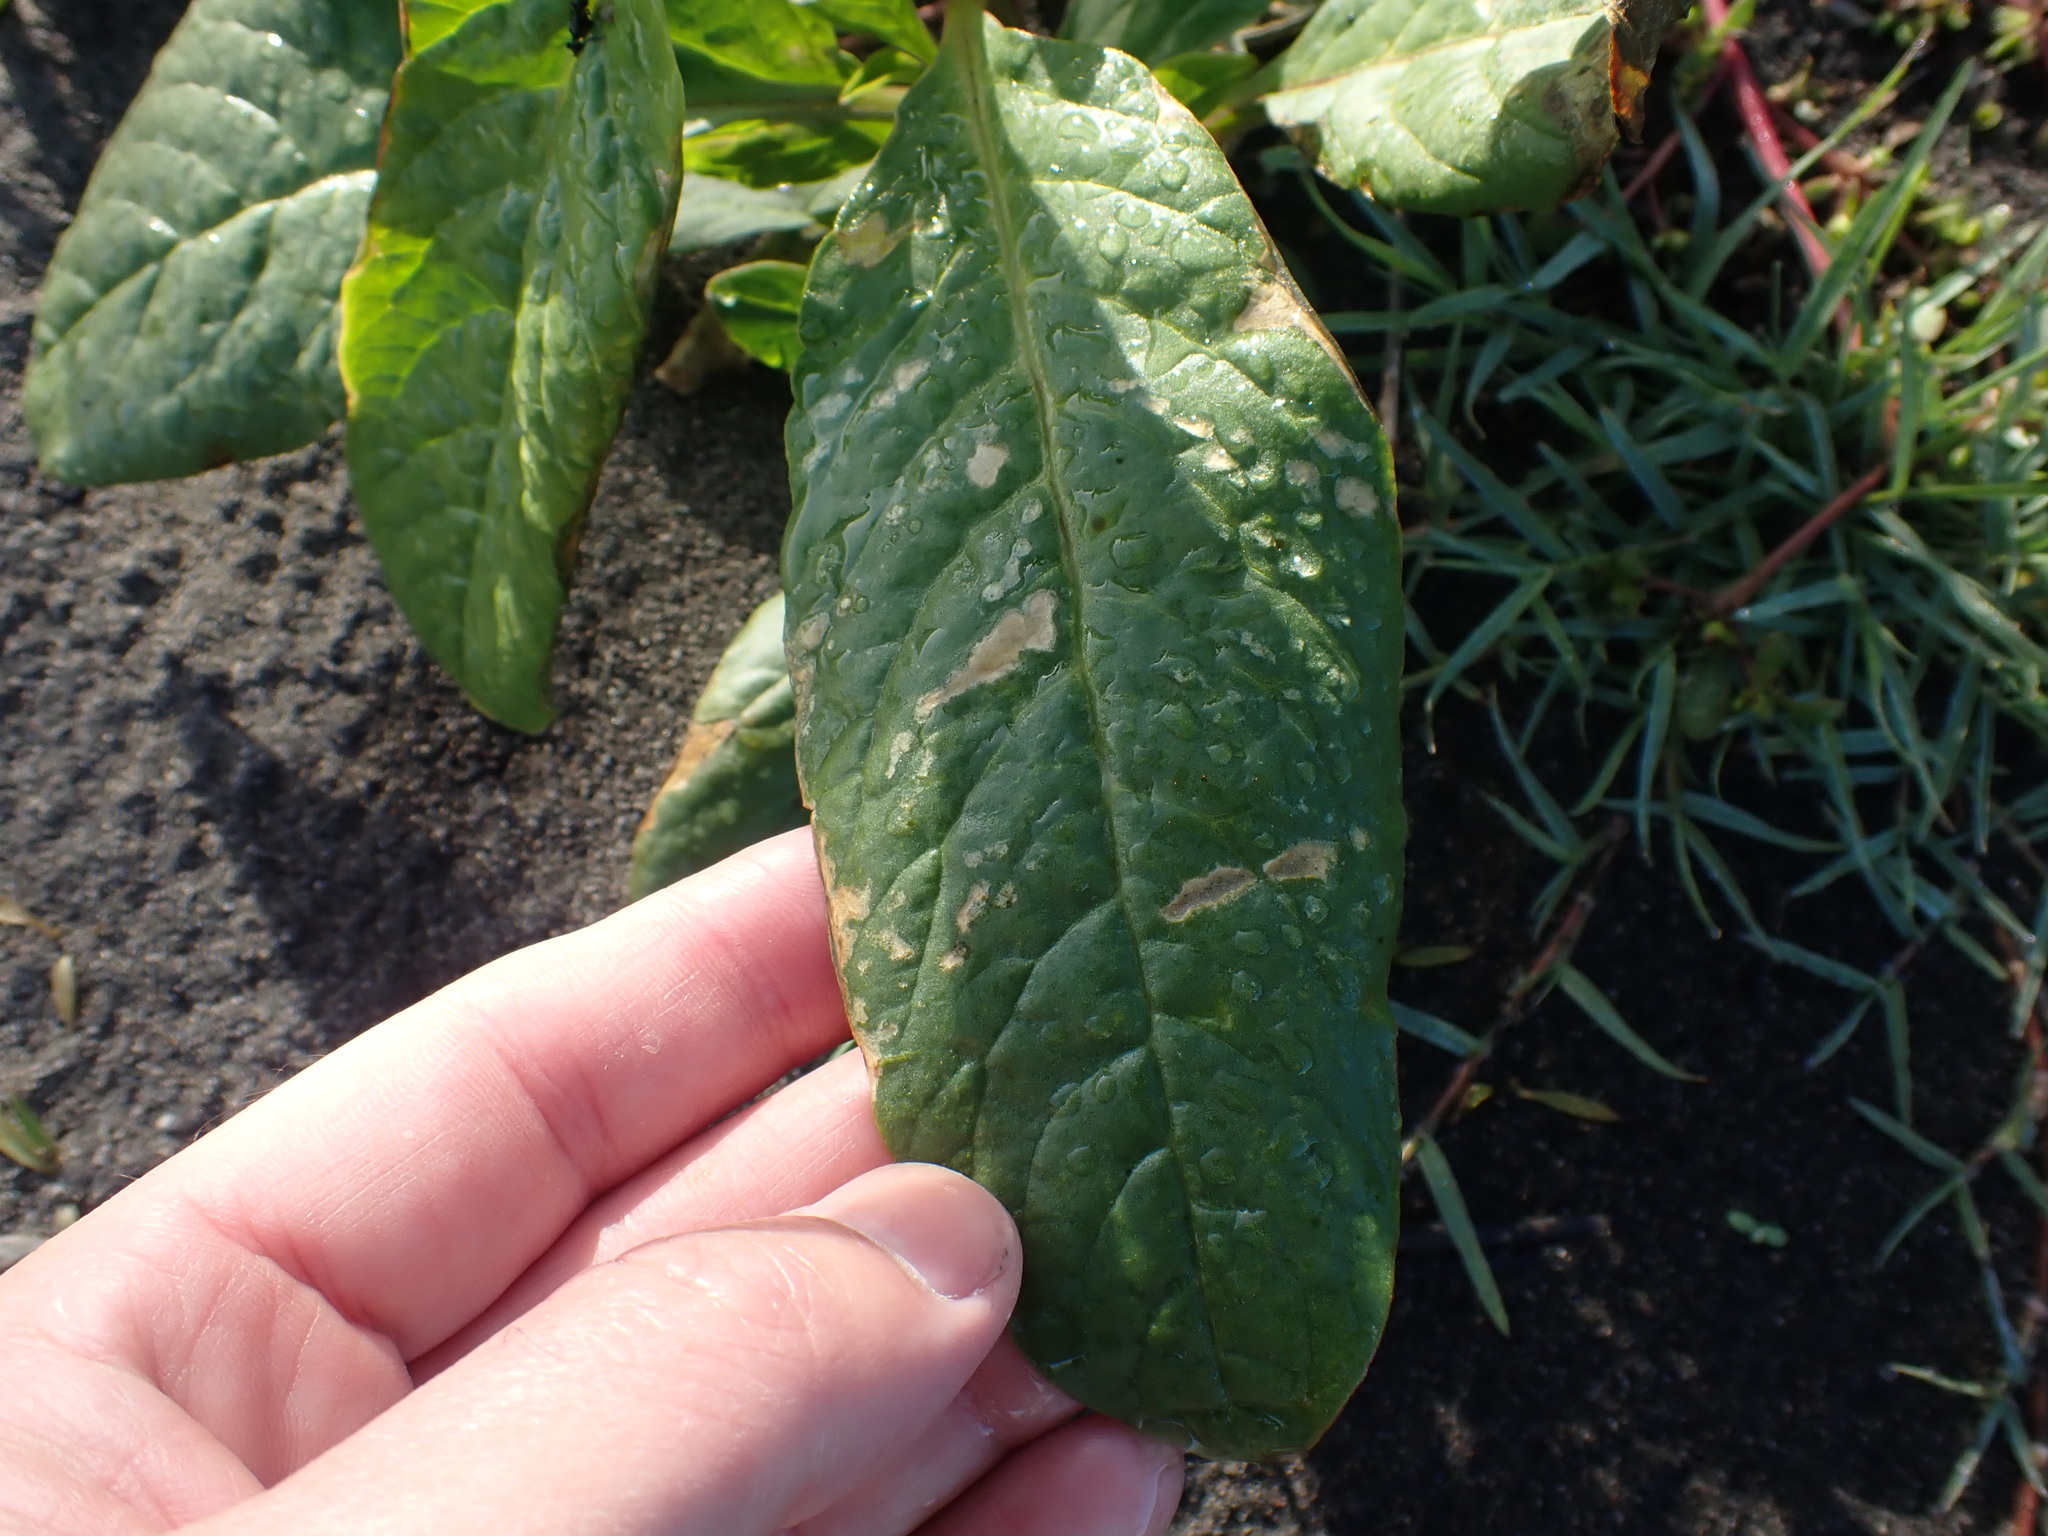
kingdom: Plantae
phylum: Tracheophyta
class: Magnoliopsida
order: Caryophyllales
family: Phytolaccaceae
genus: Phytolacca
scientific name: Phytolacca icosandra
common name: Button pokeweed
